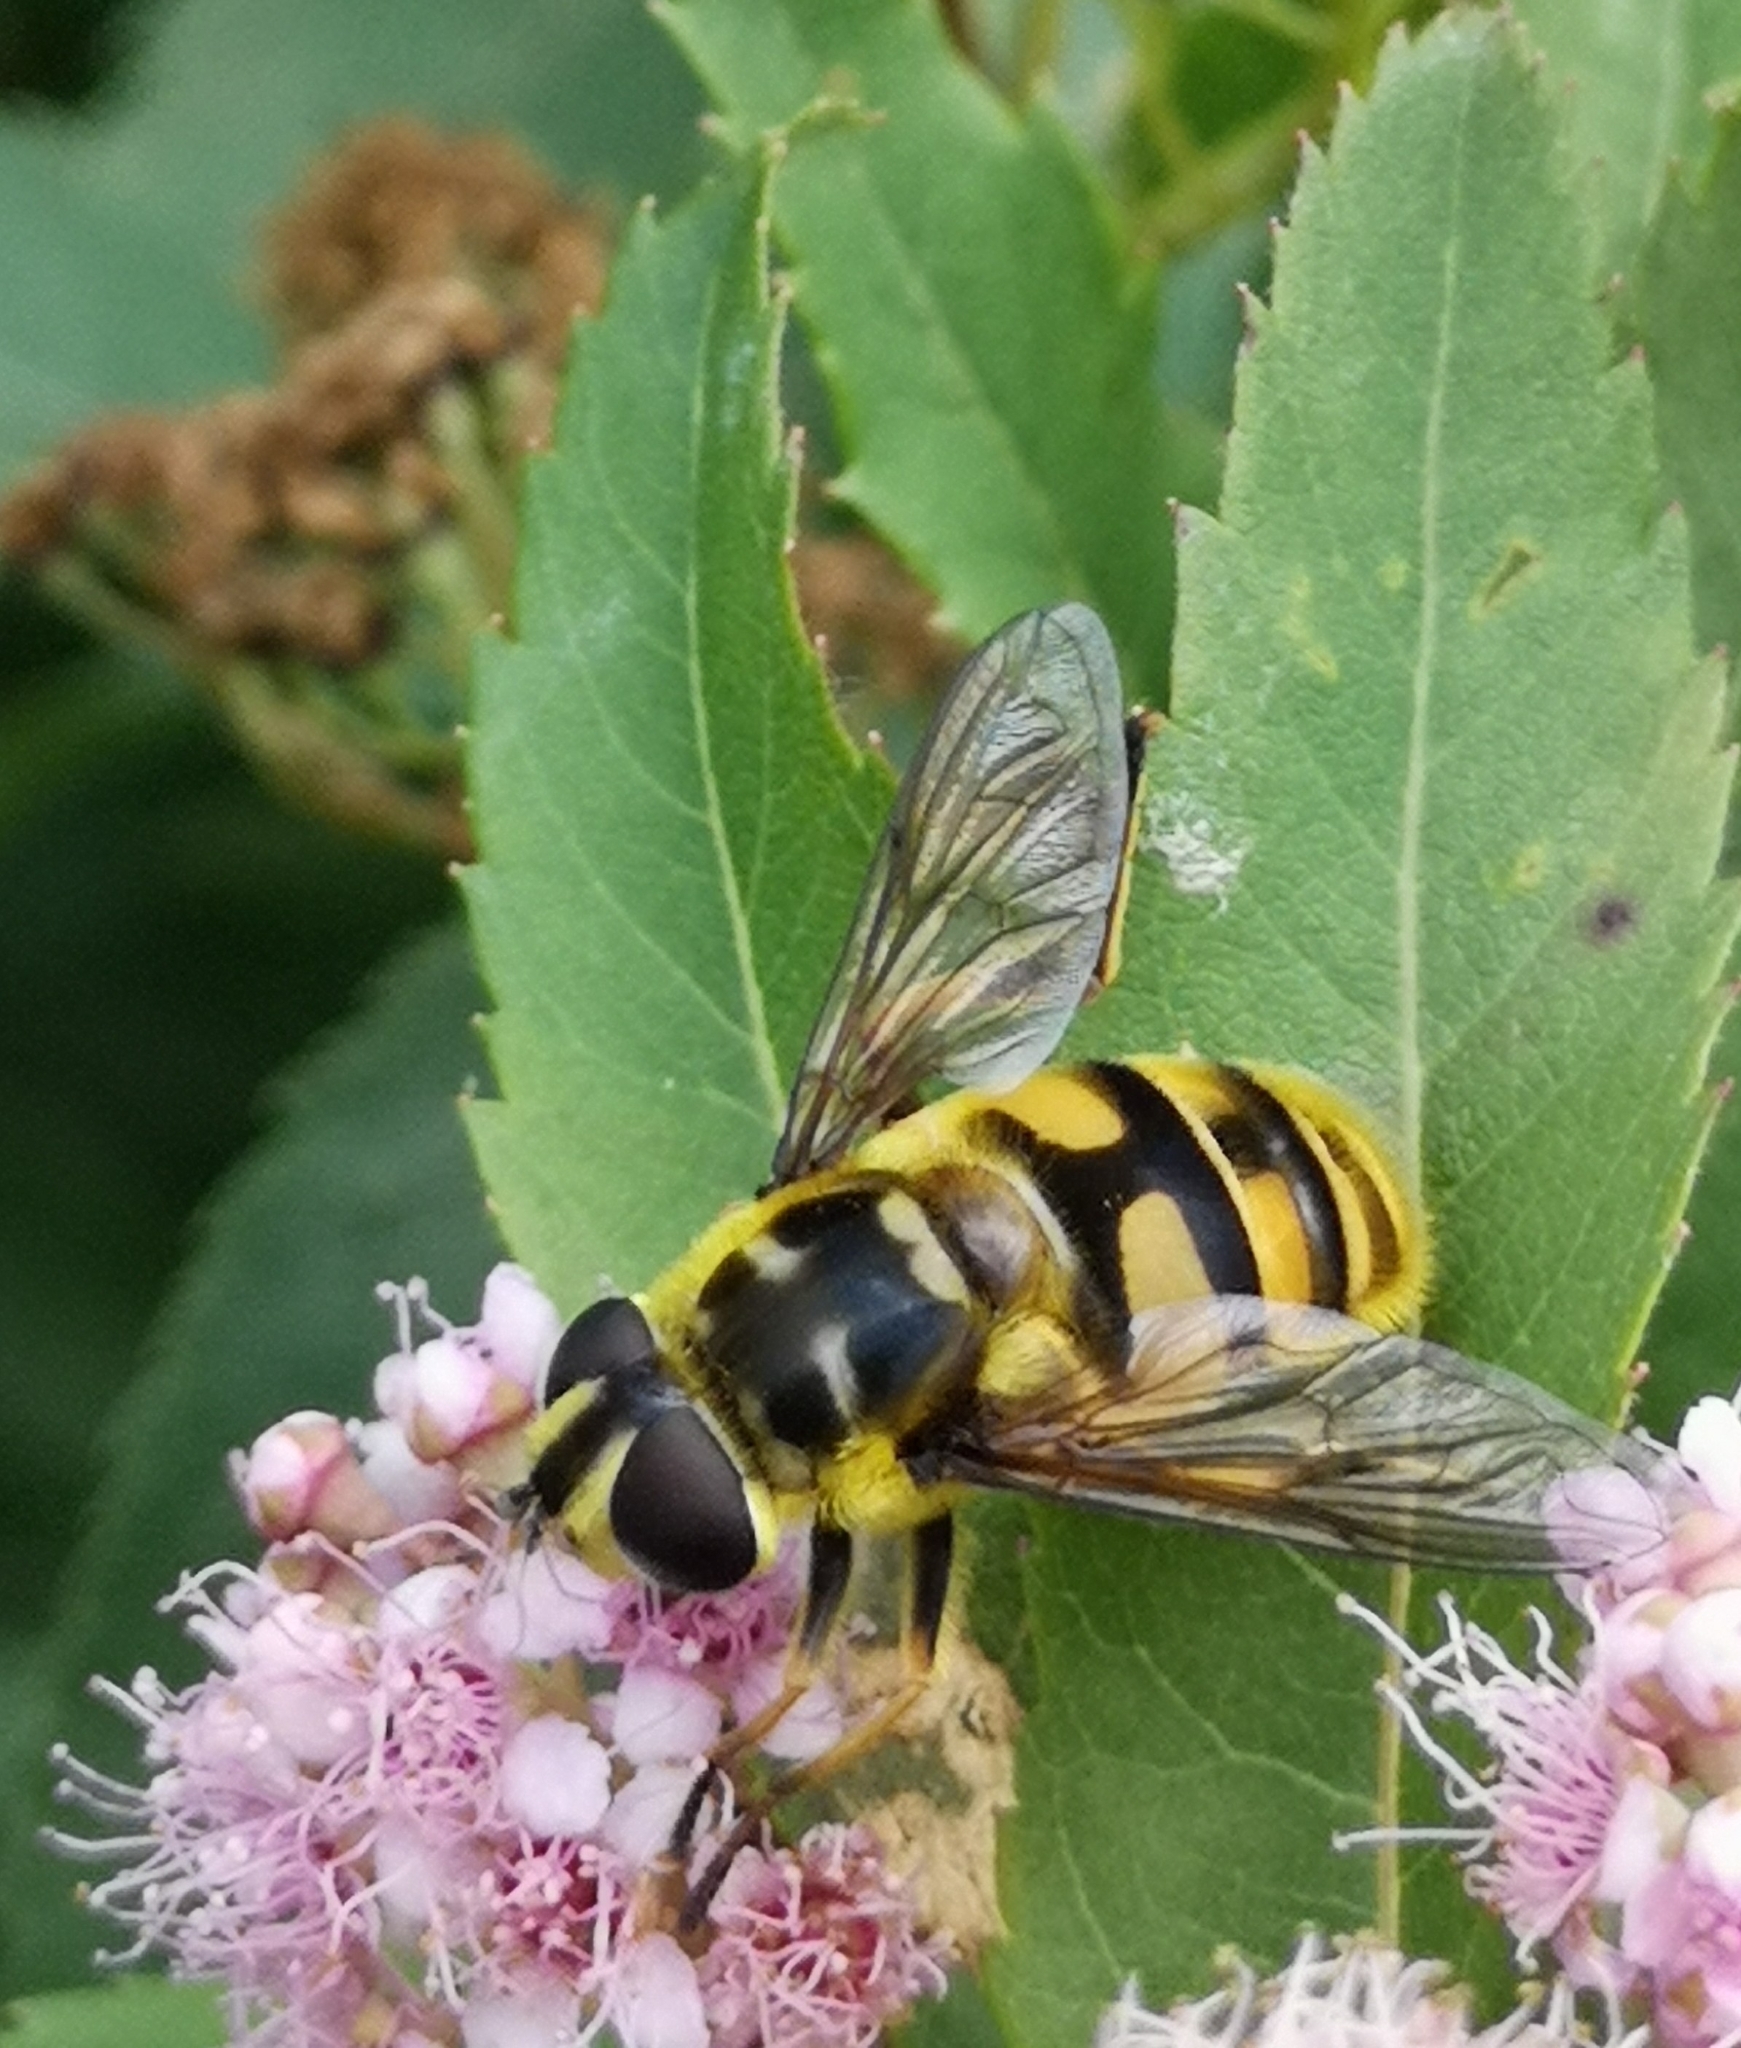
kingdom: Animalia
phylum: Arthropoda
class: Insecta
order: Diptera
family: Syrphidae
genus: Myathropa
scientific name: Myathropa florea
